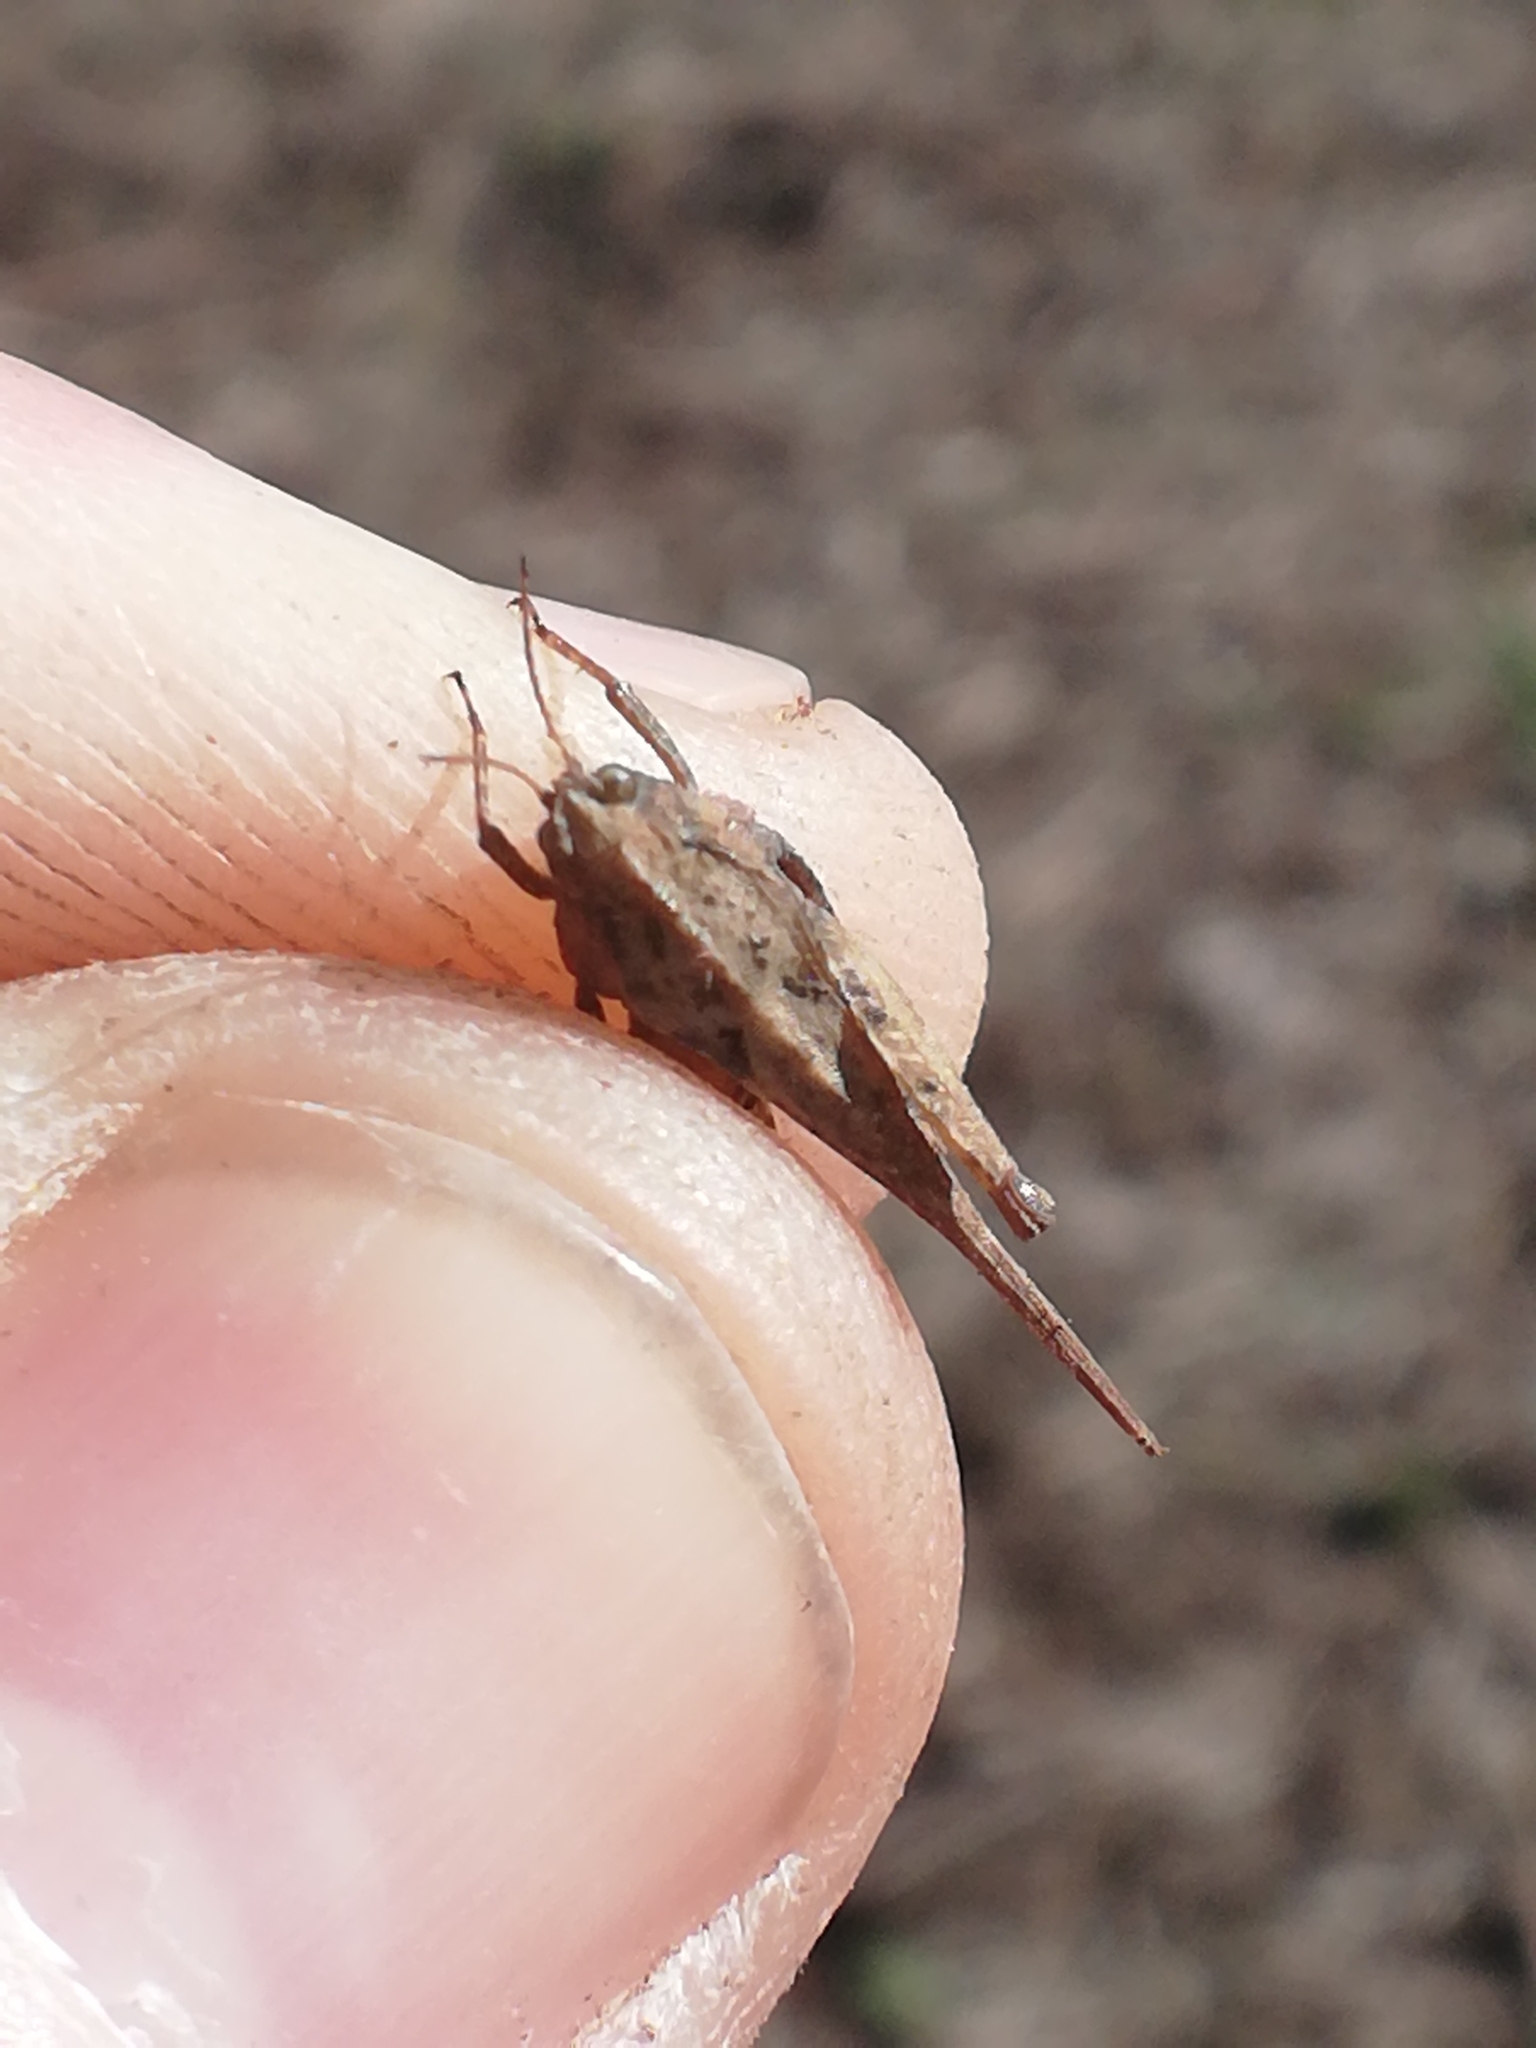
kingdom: Animalia
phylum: Arthropoda
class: Insecta
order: Orthoptera
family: Tetrigidae
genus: Tetrix
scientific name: Tetrix subulata
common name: Slender ground-hopper
